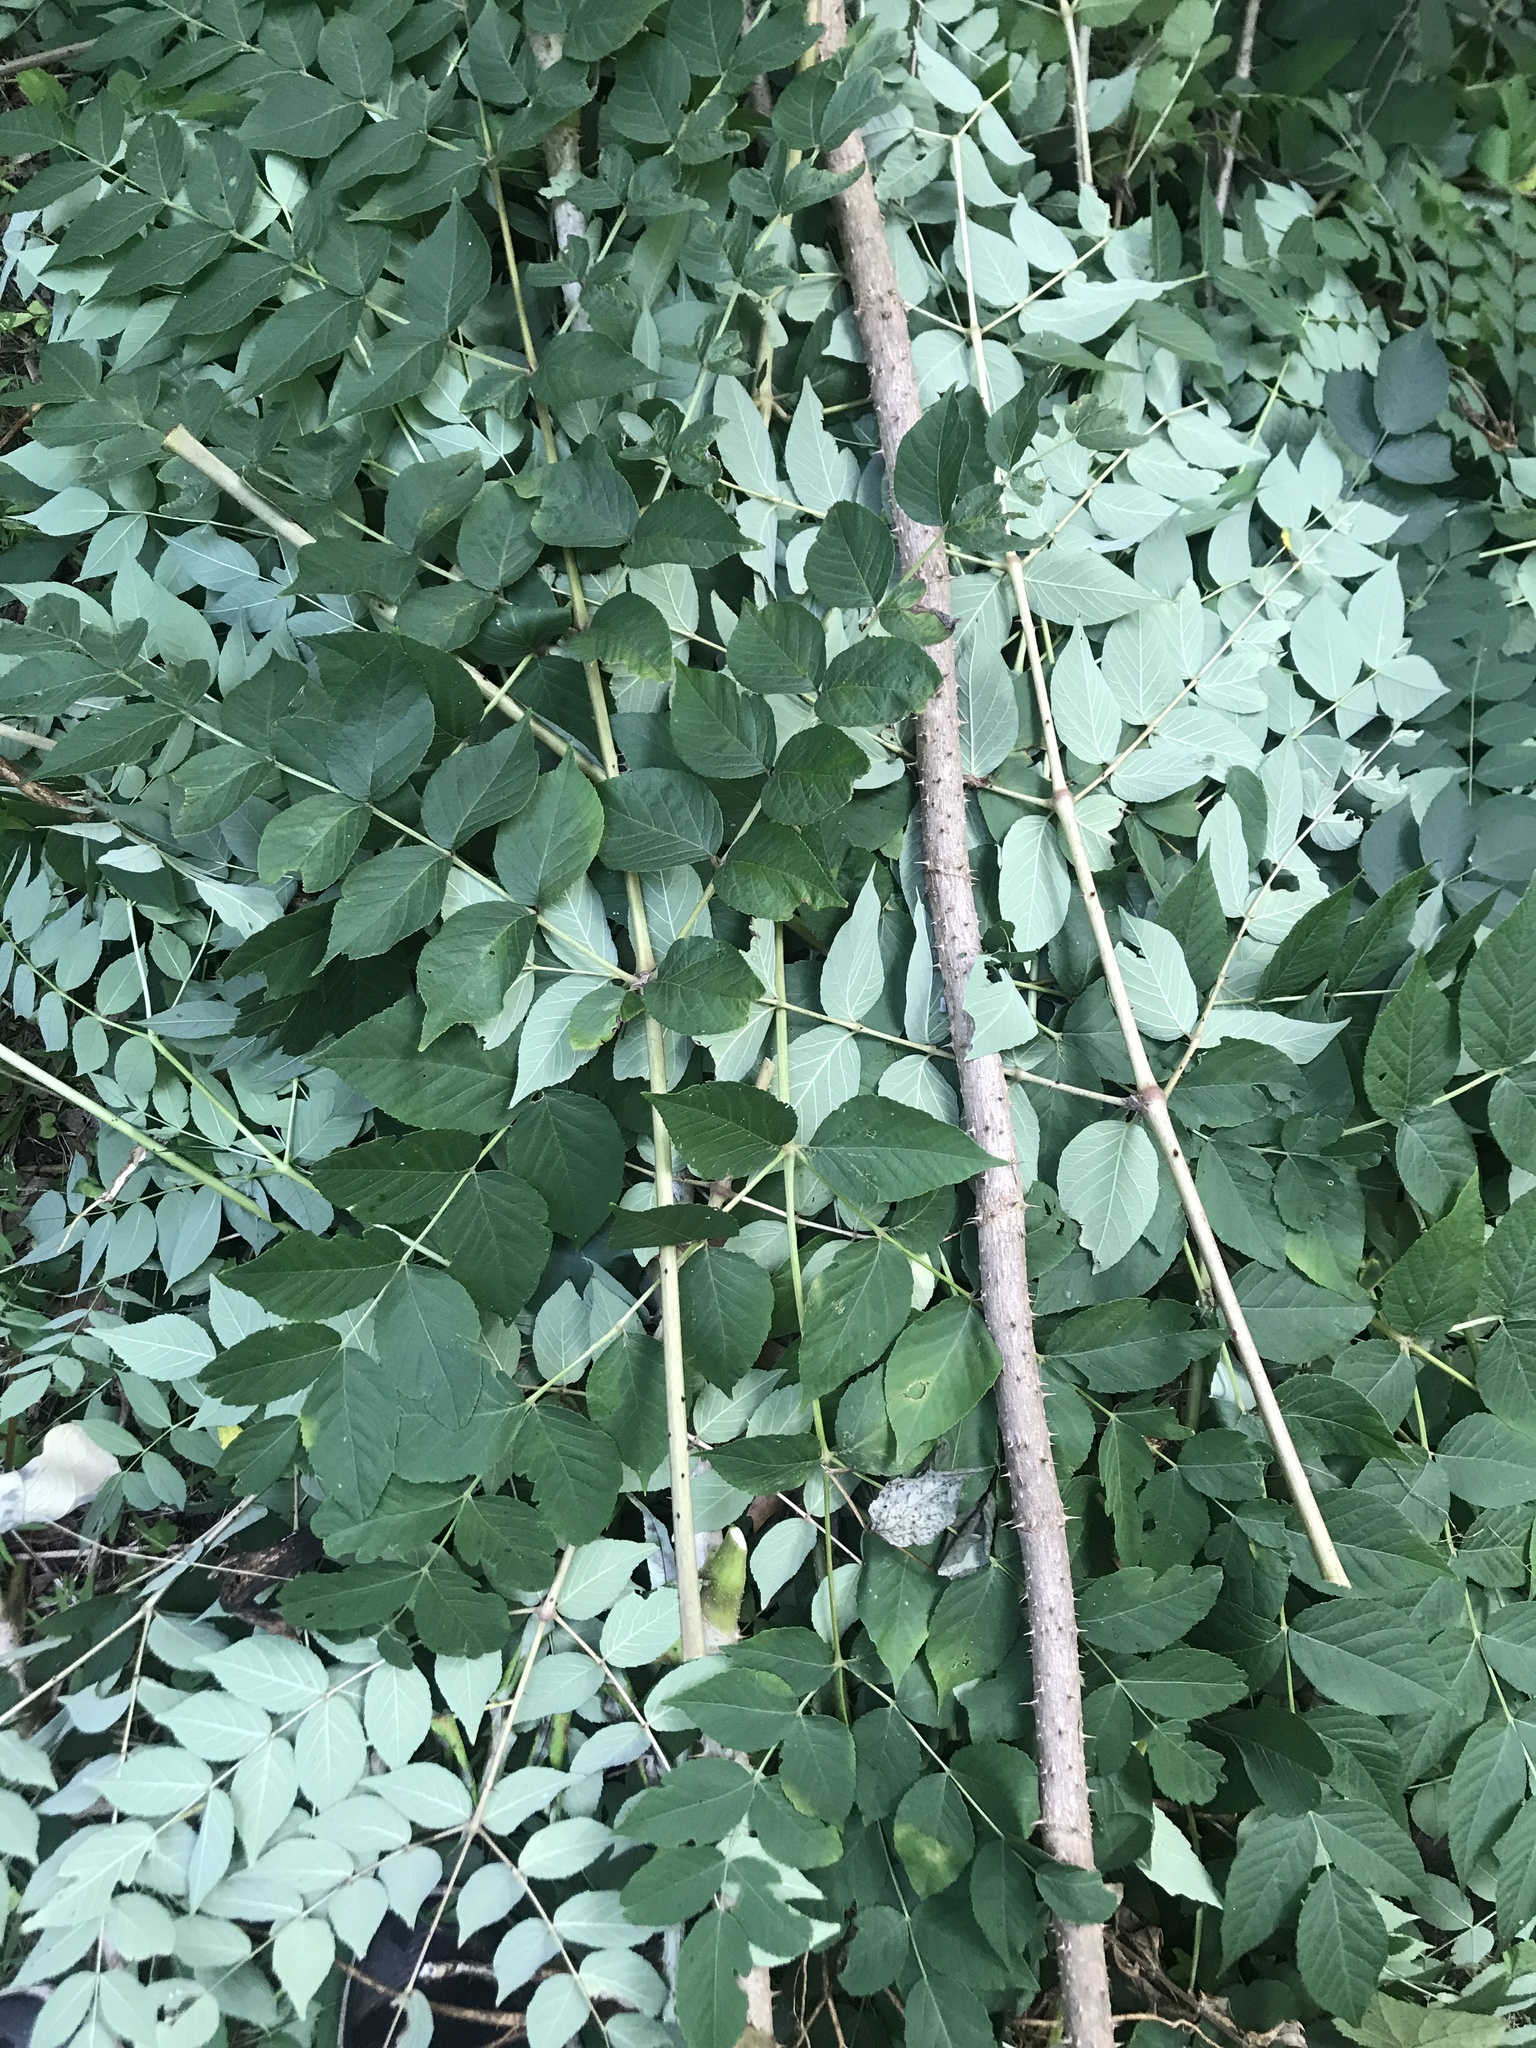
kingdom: Plantae
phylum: Tracheophyta
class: Magnoliopsida
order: Apiales
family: Araliaceae
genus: Aralia
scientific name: Aralia elata
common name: Japanese angelica-tree
